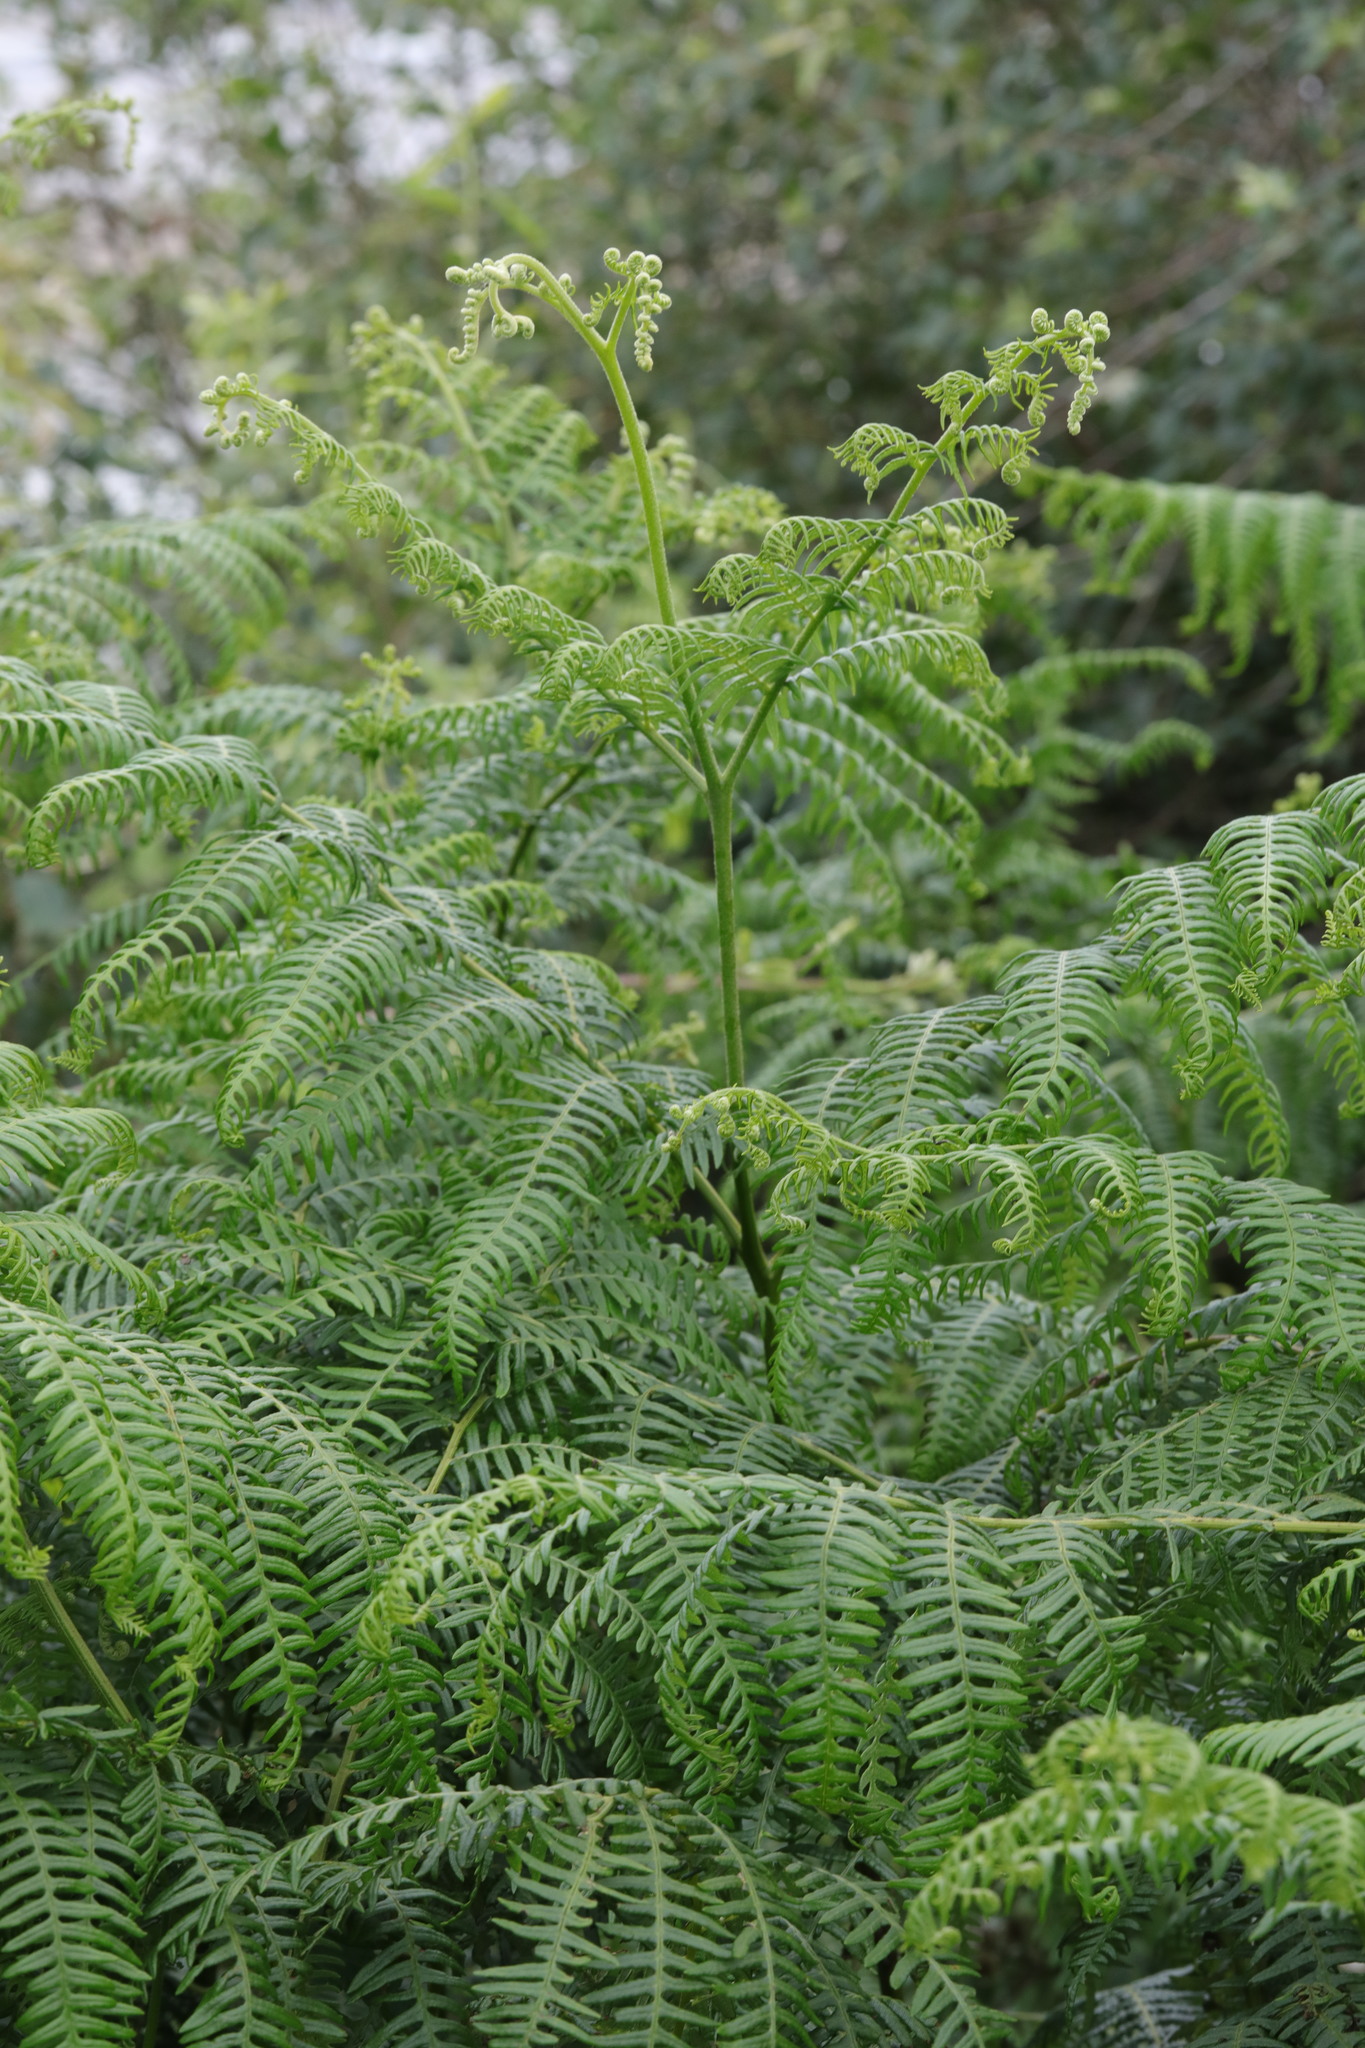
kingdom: Plantae
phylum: Tracheophyta
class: Polypodiopsida
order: Polypodiales
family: Dennstaedtiaceae
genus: Pteridium
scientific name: Pteridium aquilinum
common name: Bracken
